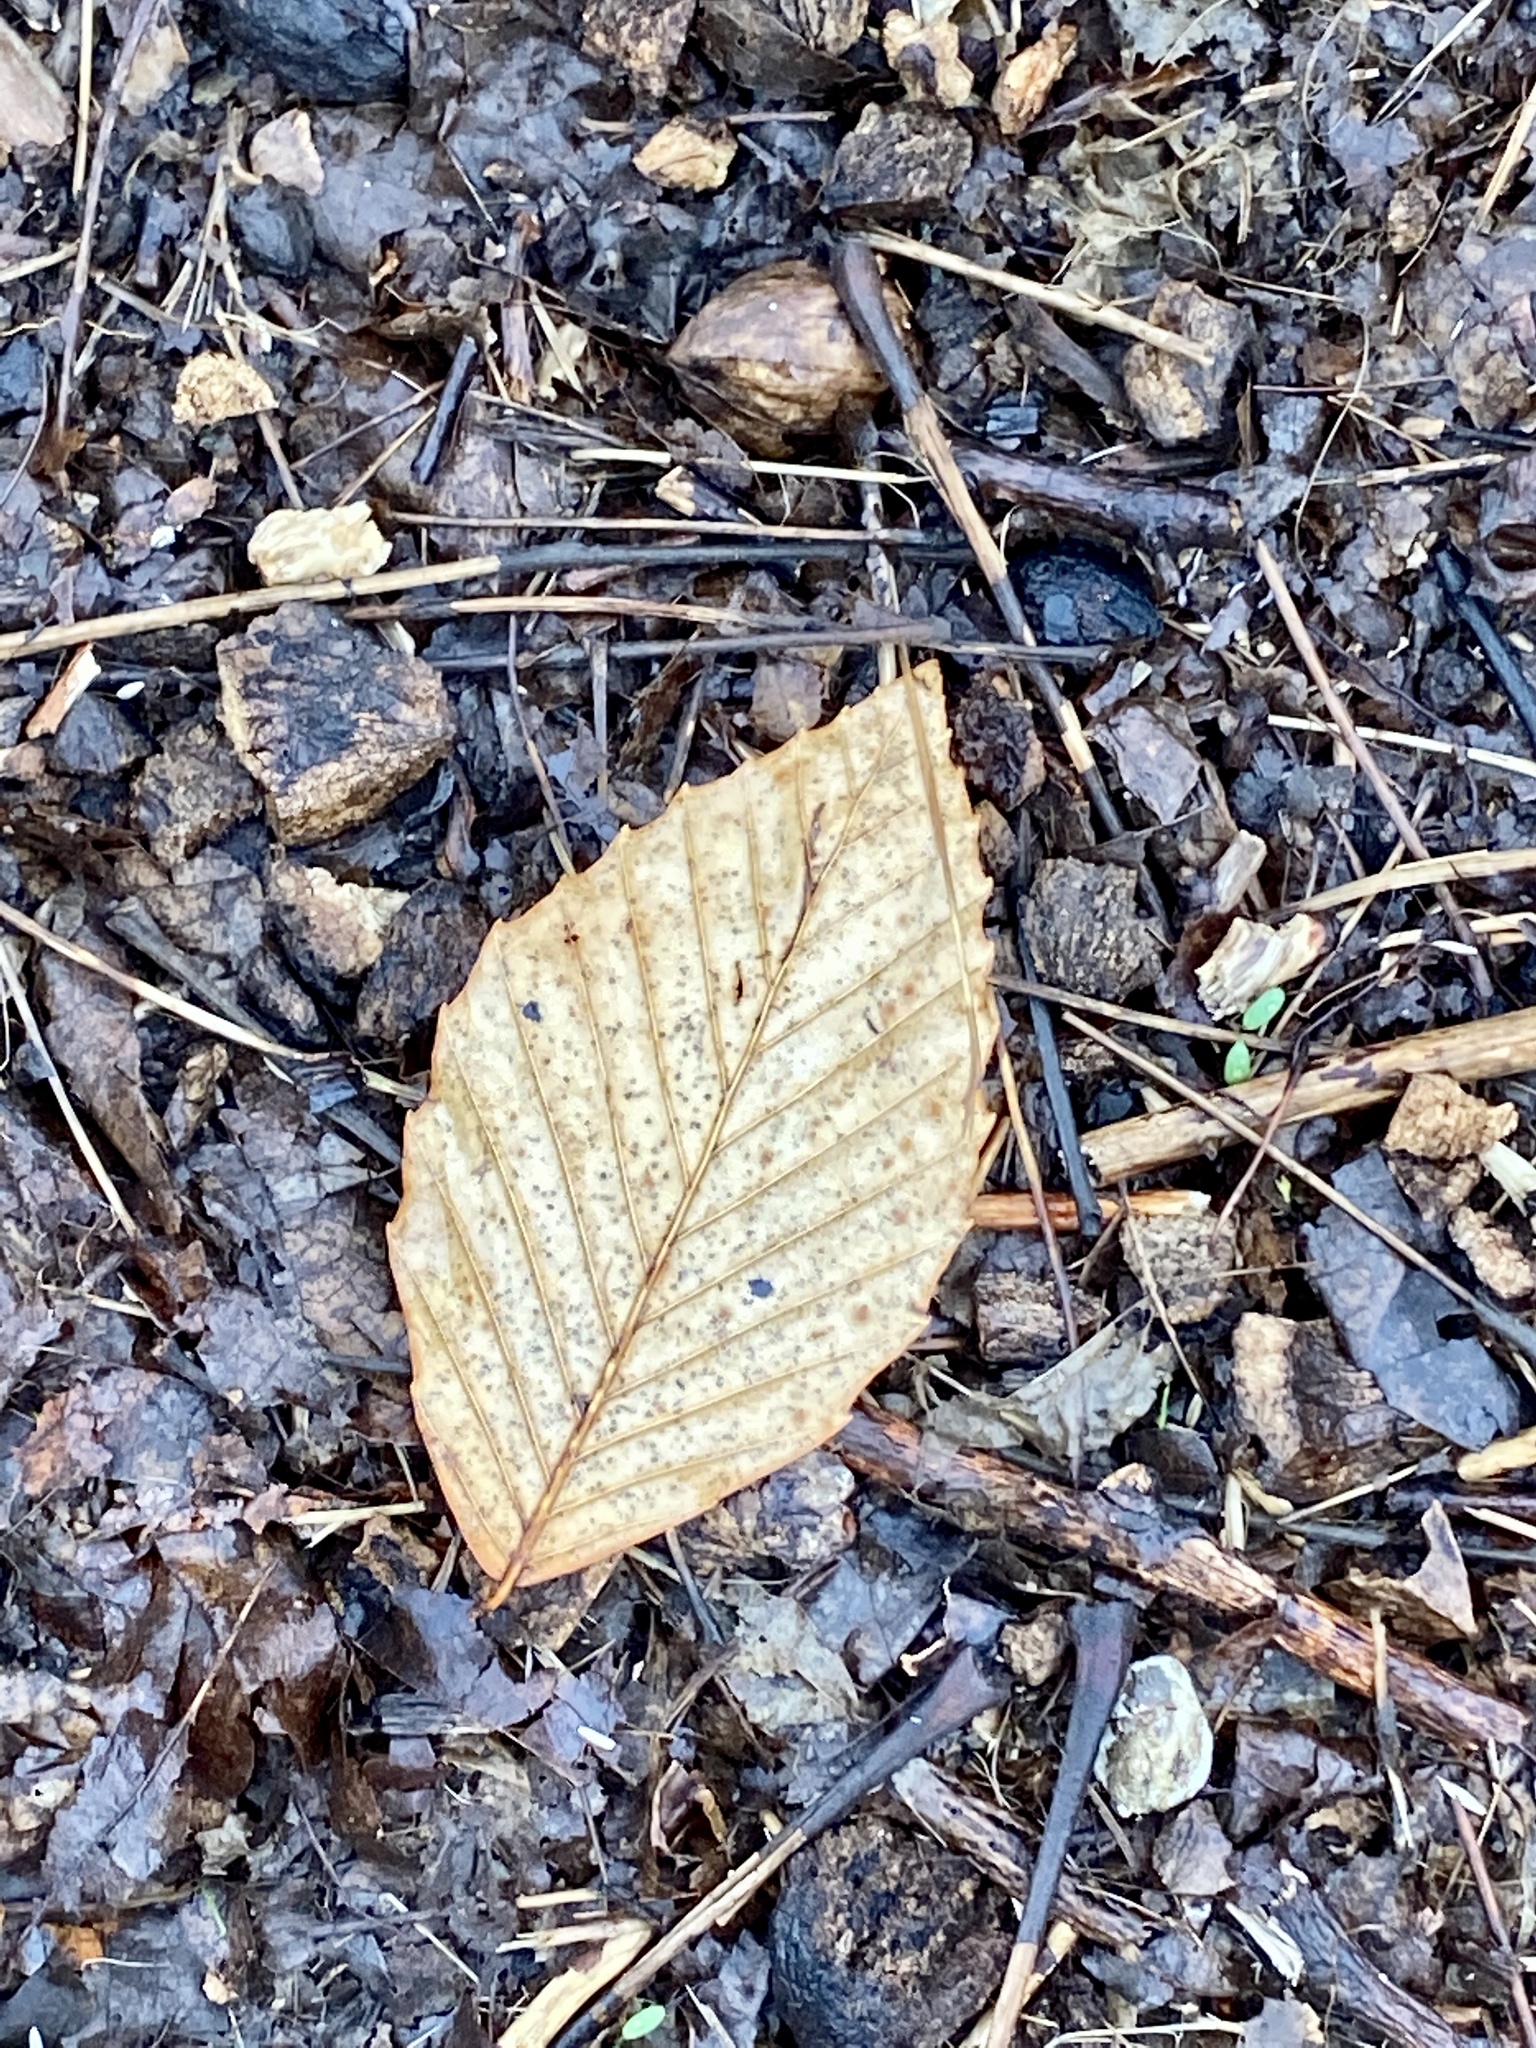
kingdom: Plantae
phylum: Tracheophyta
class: Magnoliopsida
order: Fagales
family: Fagaceae
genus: Fagus
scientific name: Fagus grandifolia
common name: American beech
